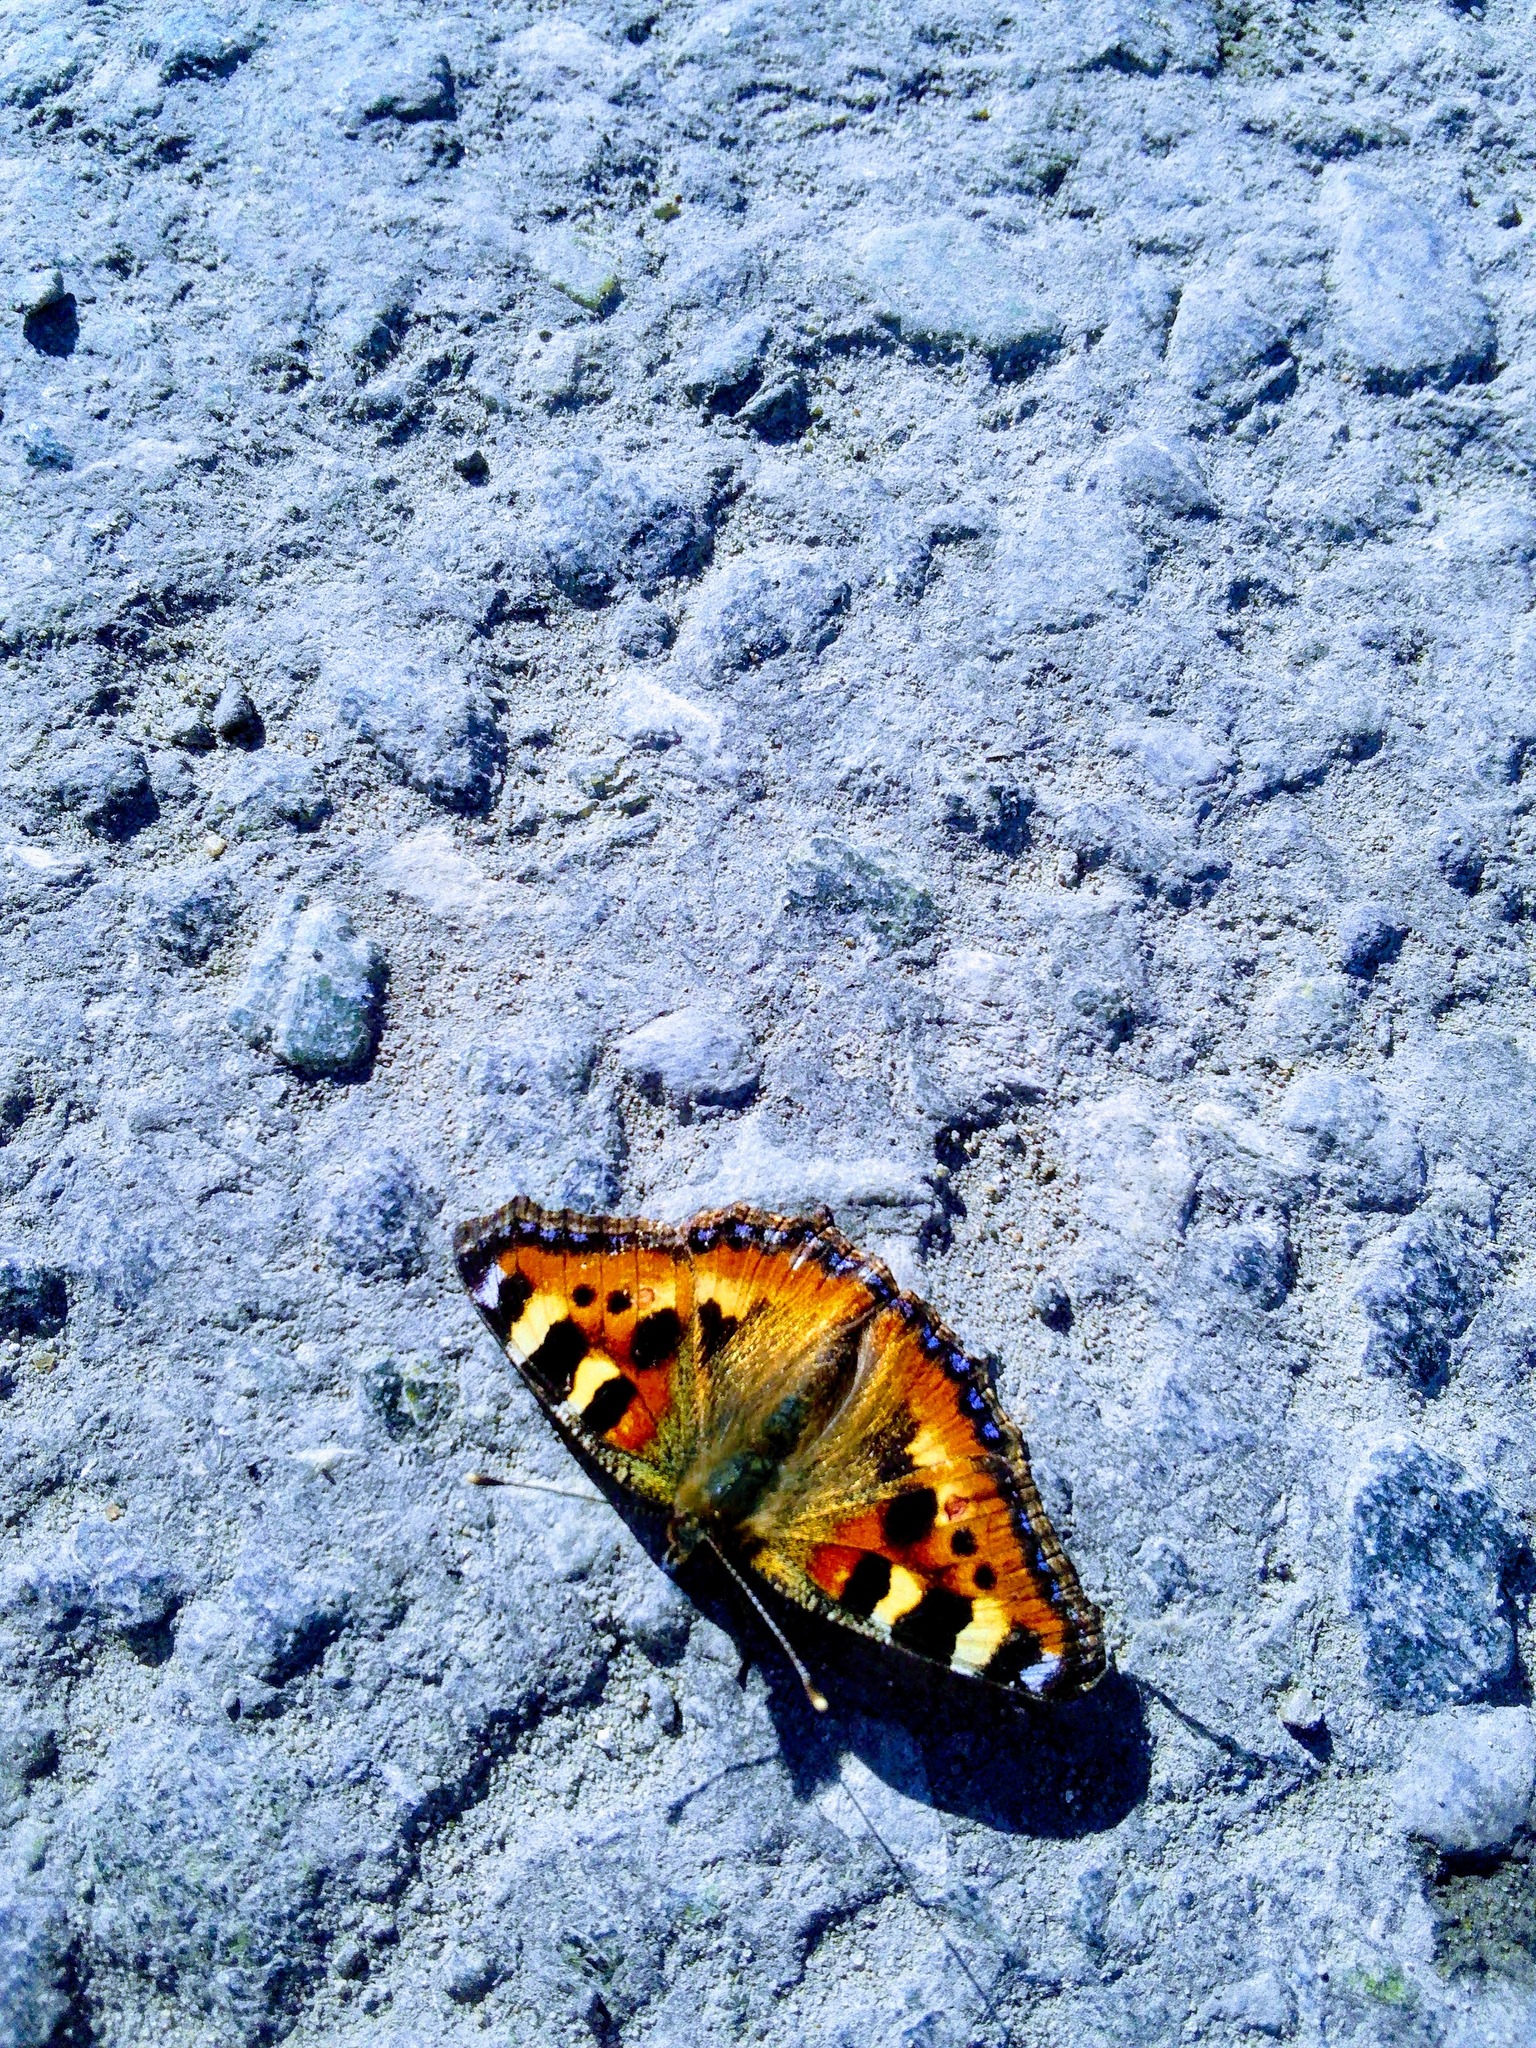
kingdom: Animalia
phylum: Arthropoda
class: Insecta
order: Lepidoptera
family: Nymphalidae
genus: Aglais
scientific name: Aglais urticae
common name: Small tortoiseshell
